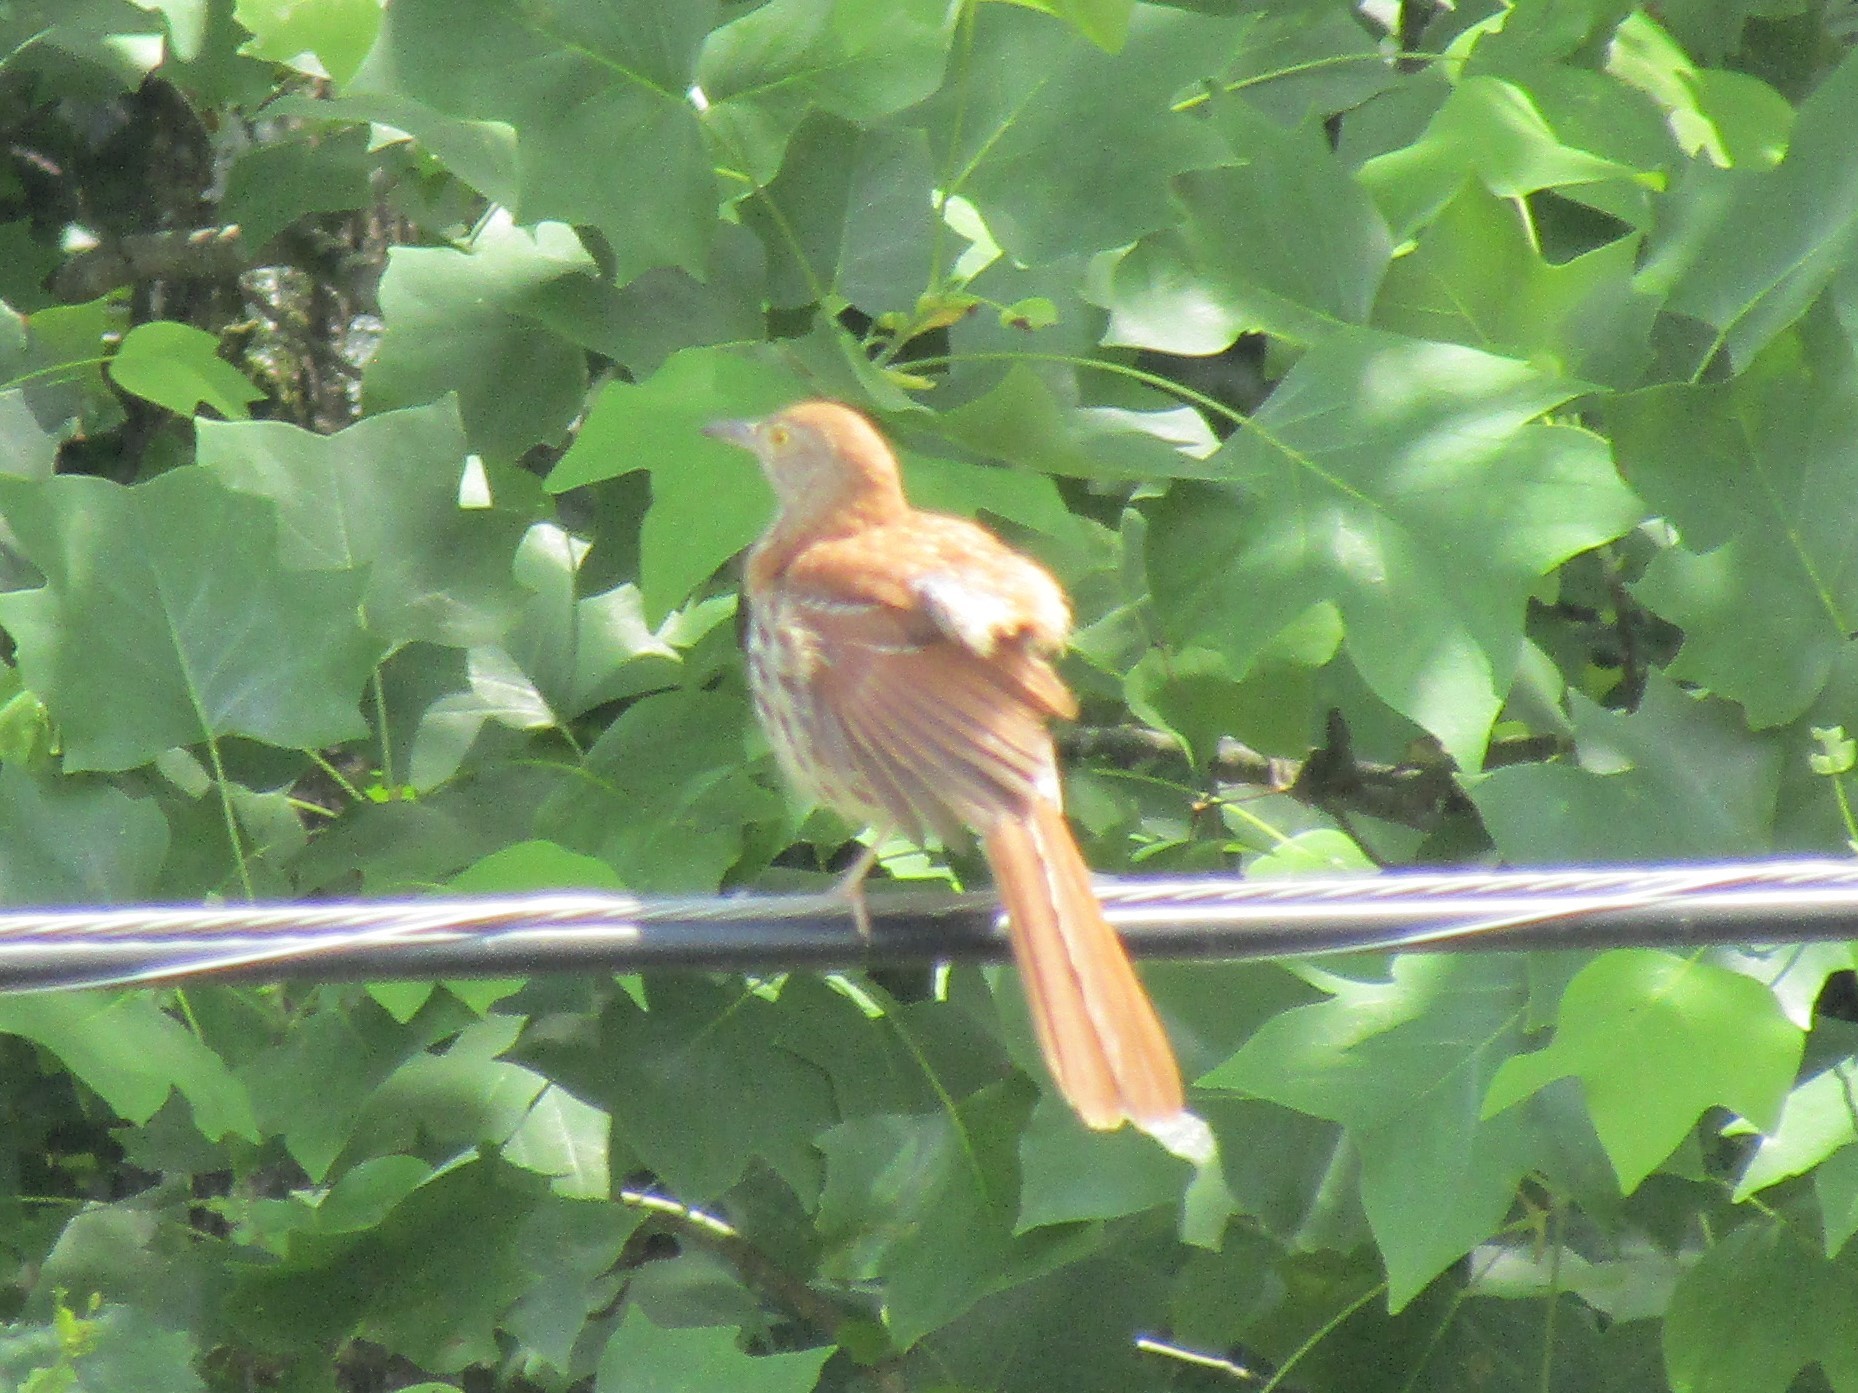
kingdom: Animalia
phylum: Chordata
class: Aves
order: Passeriformes
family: Mimidae
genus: Toxostoma
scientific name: Toxostoma rufum
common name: Brown thrasher
